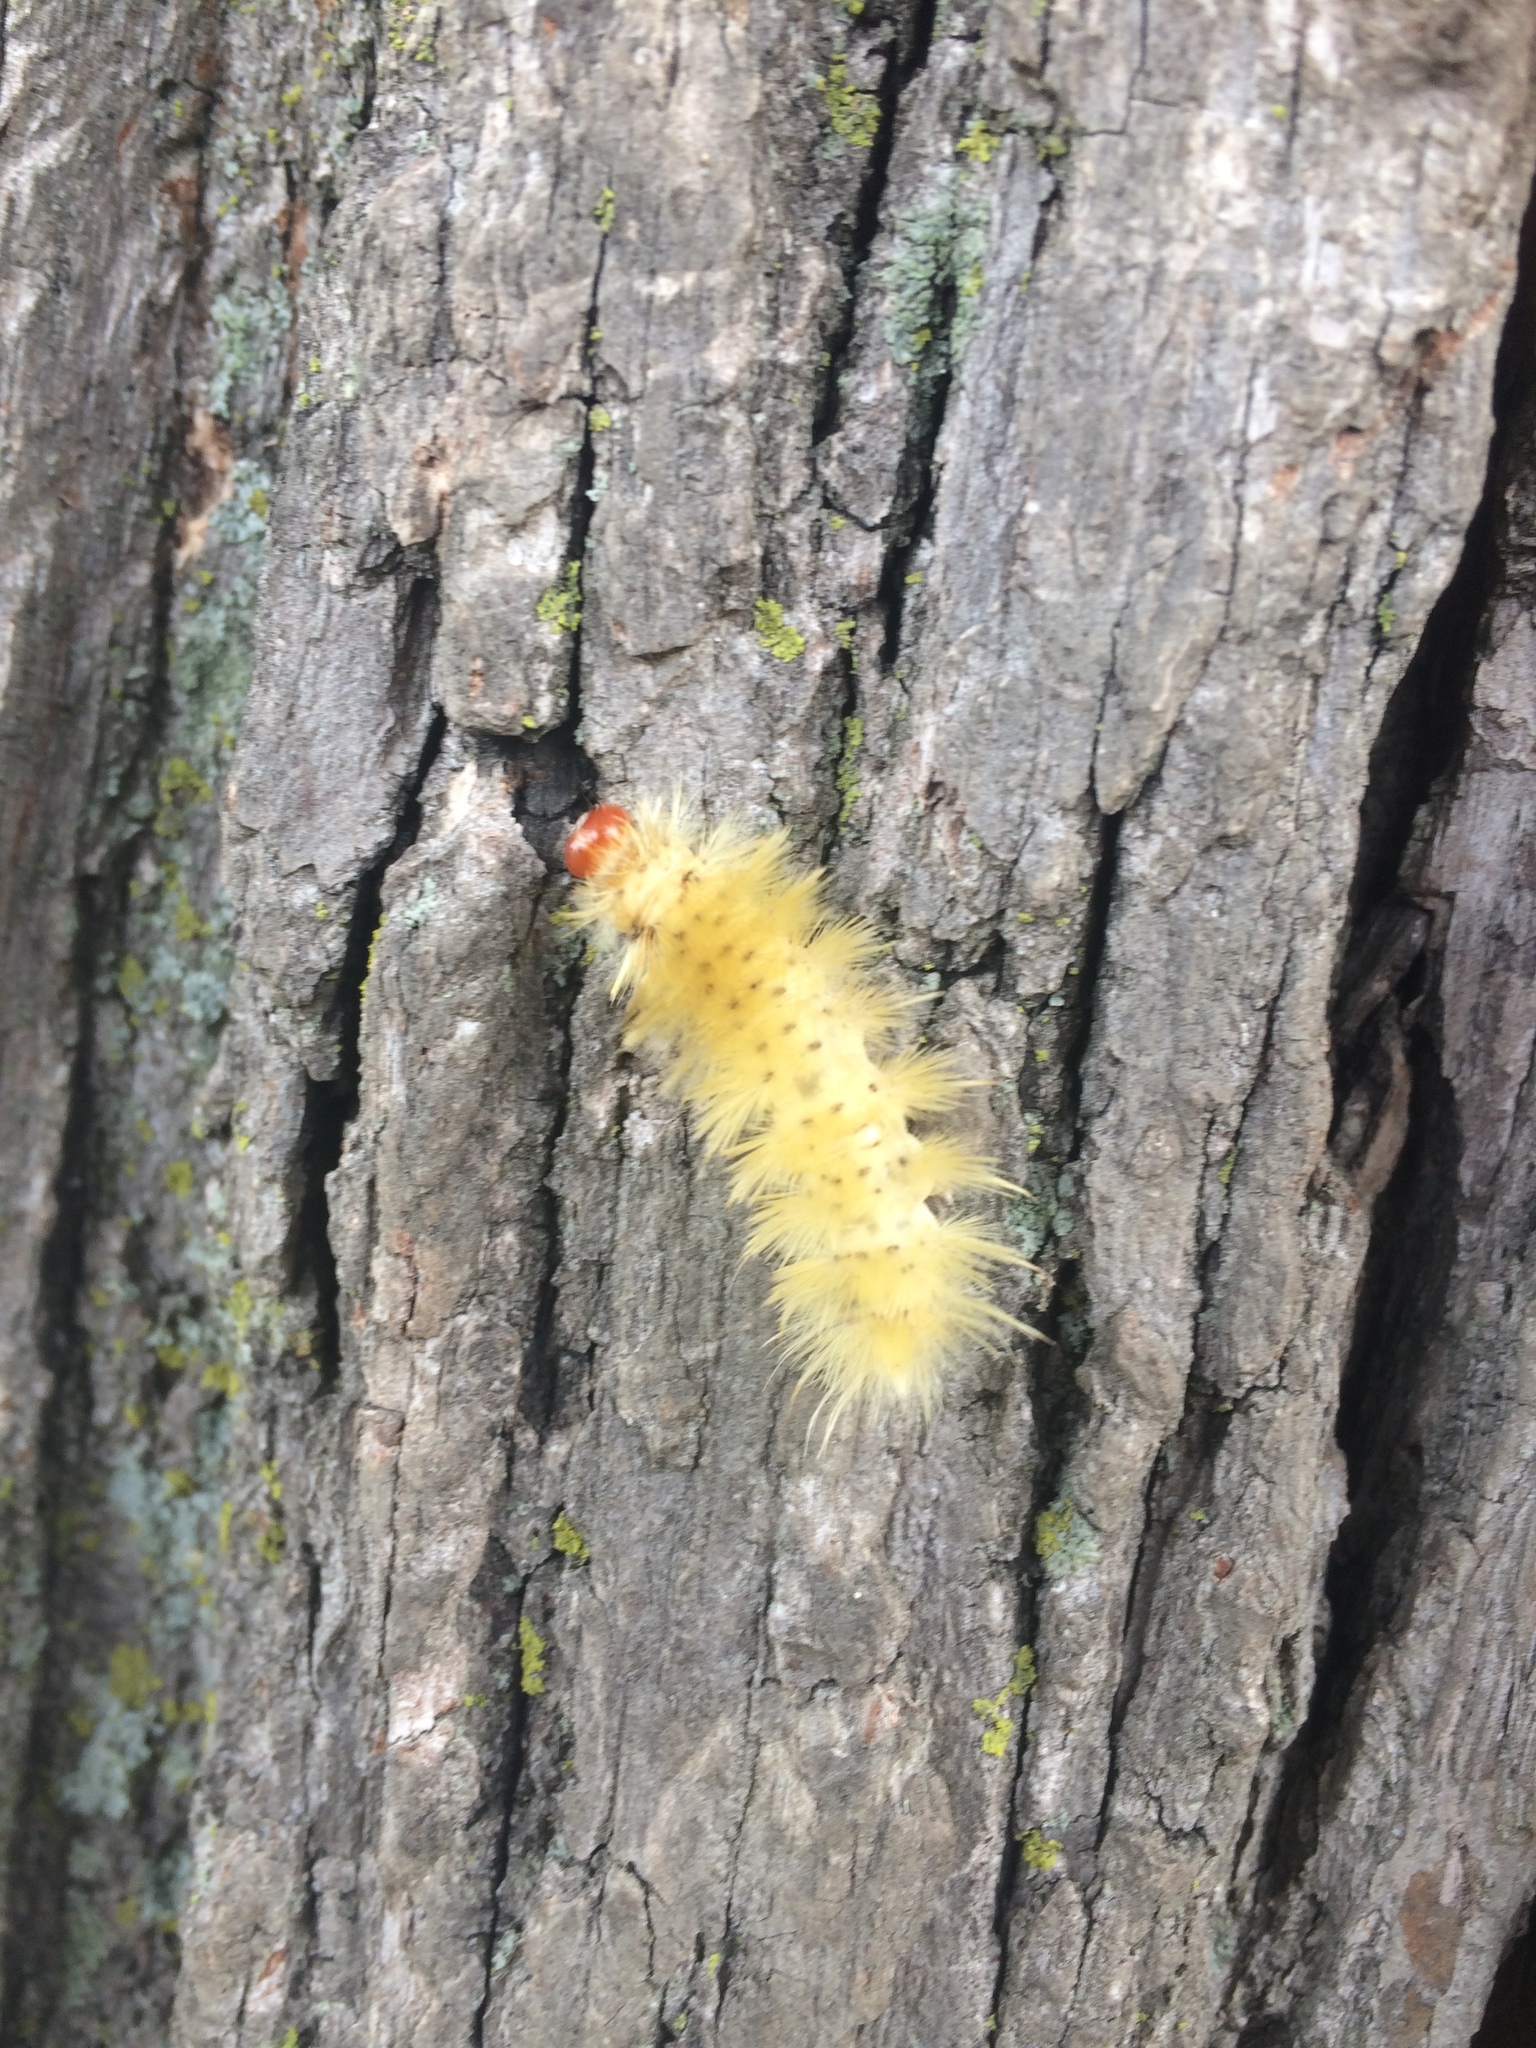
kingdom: Animalia
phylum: Arthropoda
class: Insecta
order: Lepidoptera
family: Erebidae
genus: Halysidota
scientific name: Halysidota harrisii
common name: Sycamore tussock moth
